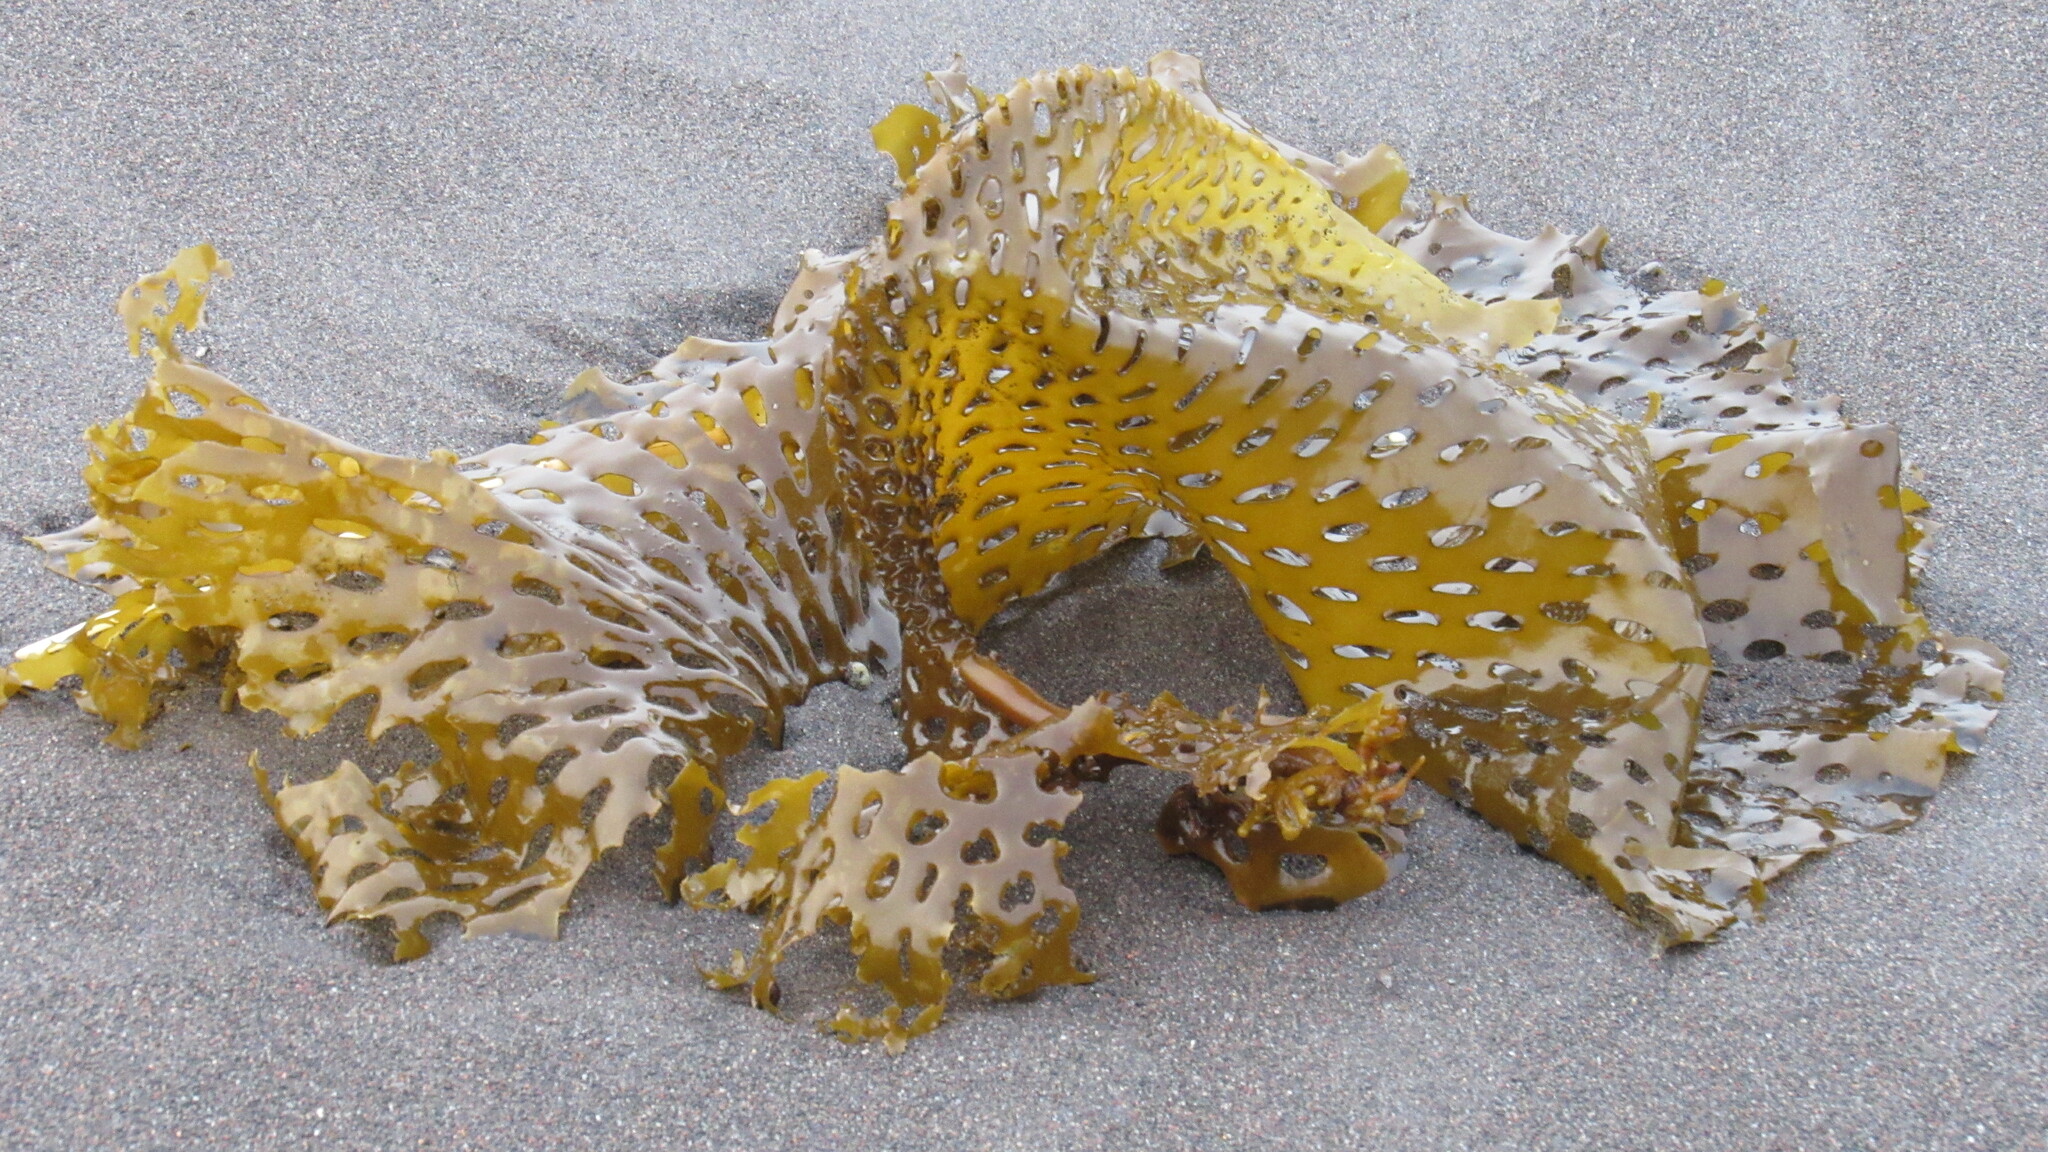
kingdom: Chromista
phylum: Ochrophyta
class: Phaeophyceae
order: Laminariales
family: Costariaceae
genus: Thalassiophyllum
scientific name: Thalassiophyllum
